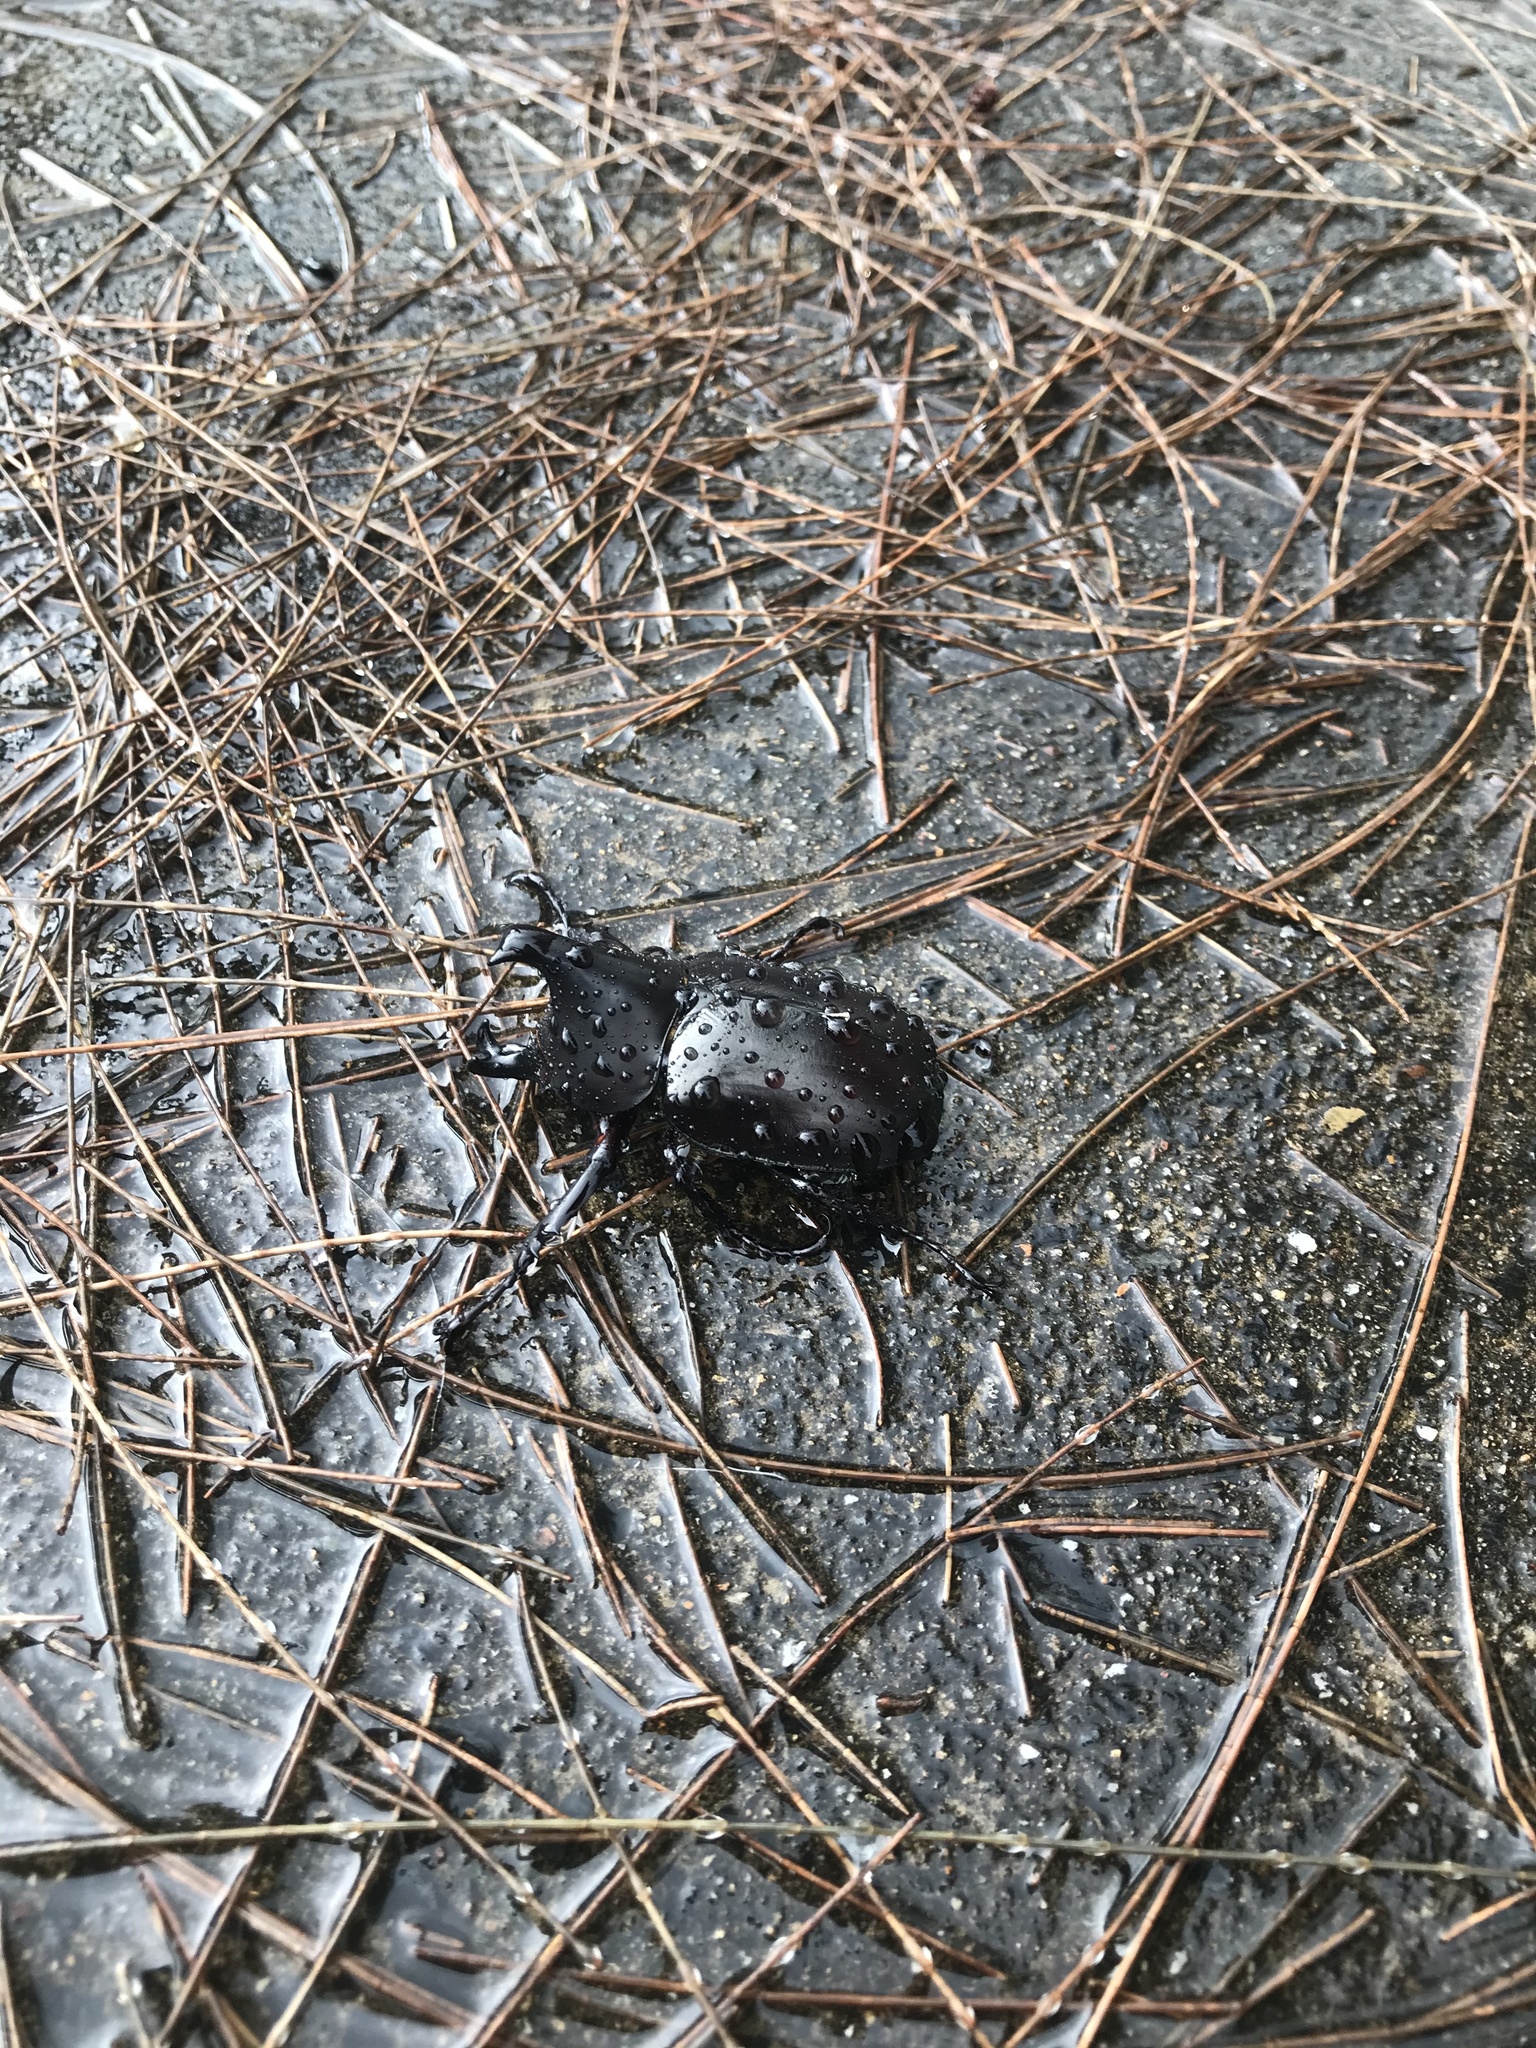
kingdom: Animalia
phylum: Arthropoda
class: Insecta
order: Coleoptera
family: Scarabaeidae
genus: Xylotrupes
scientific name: Xylotrupes australicus
